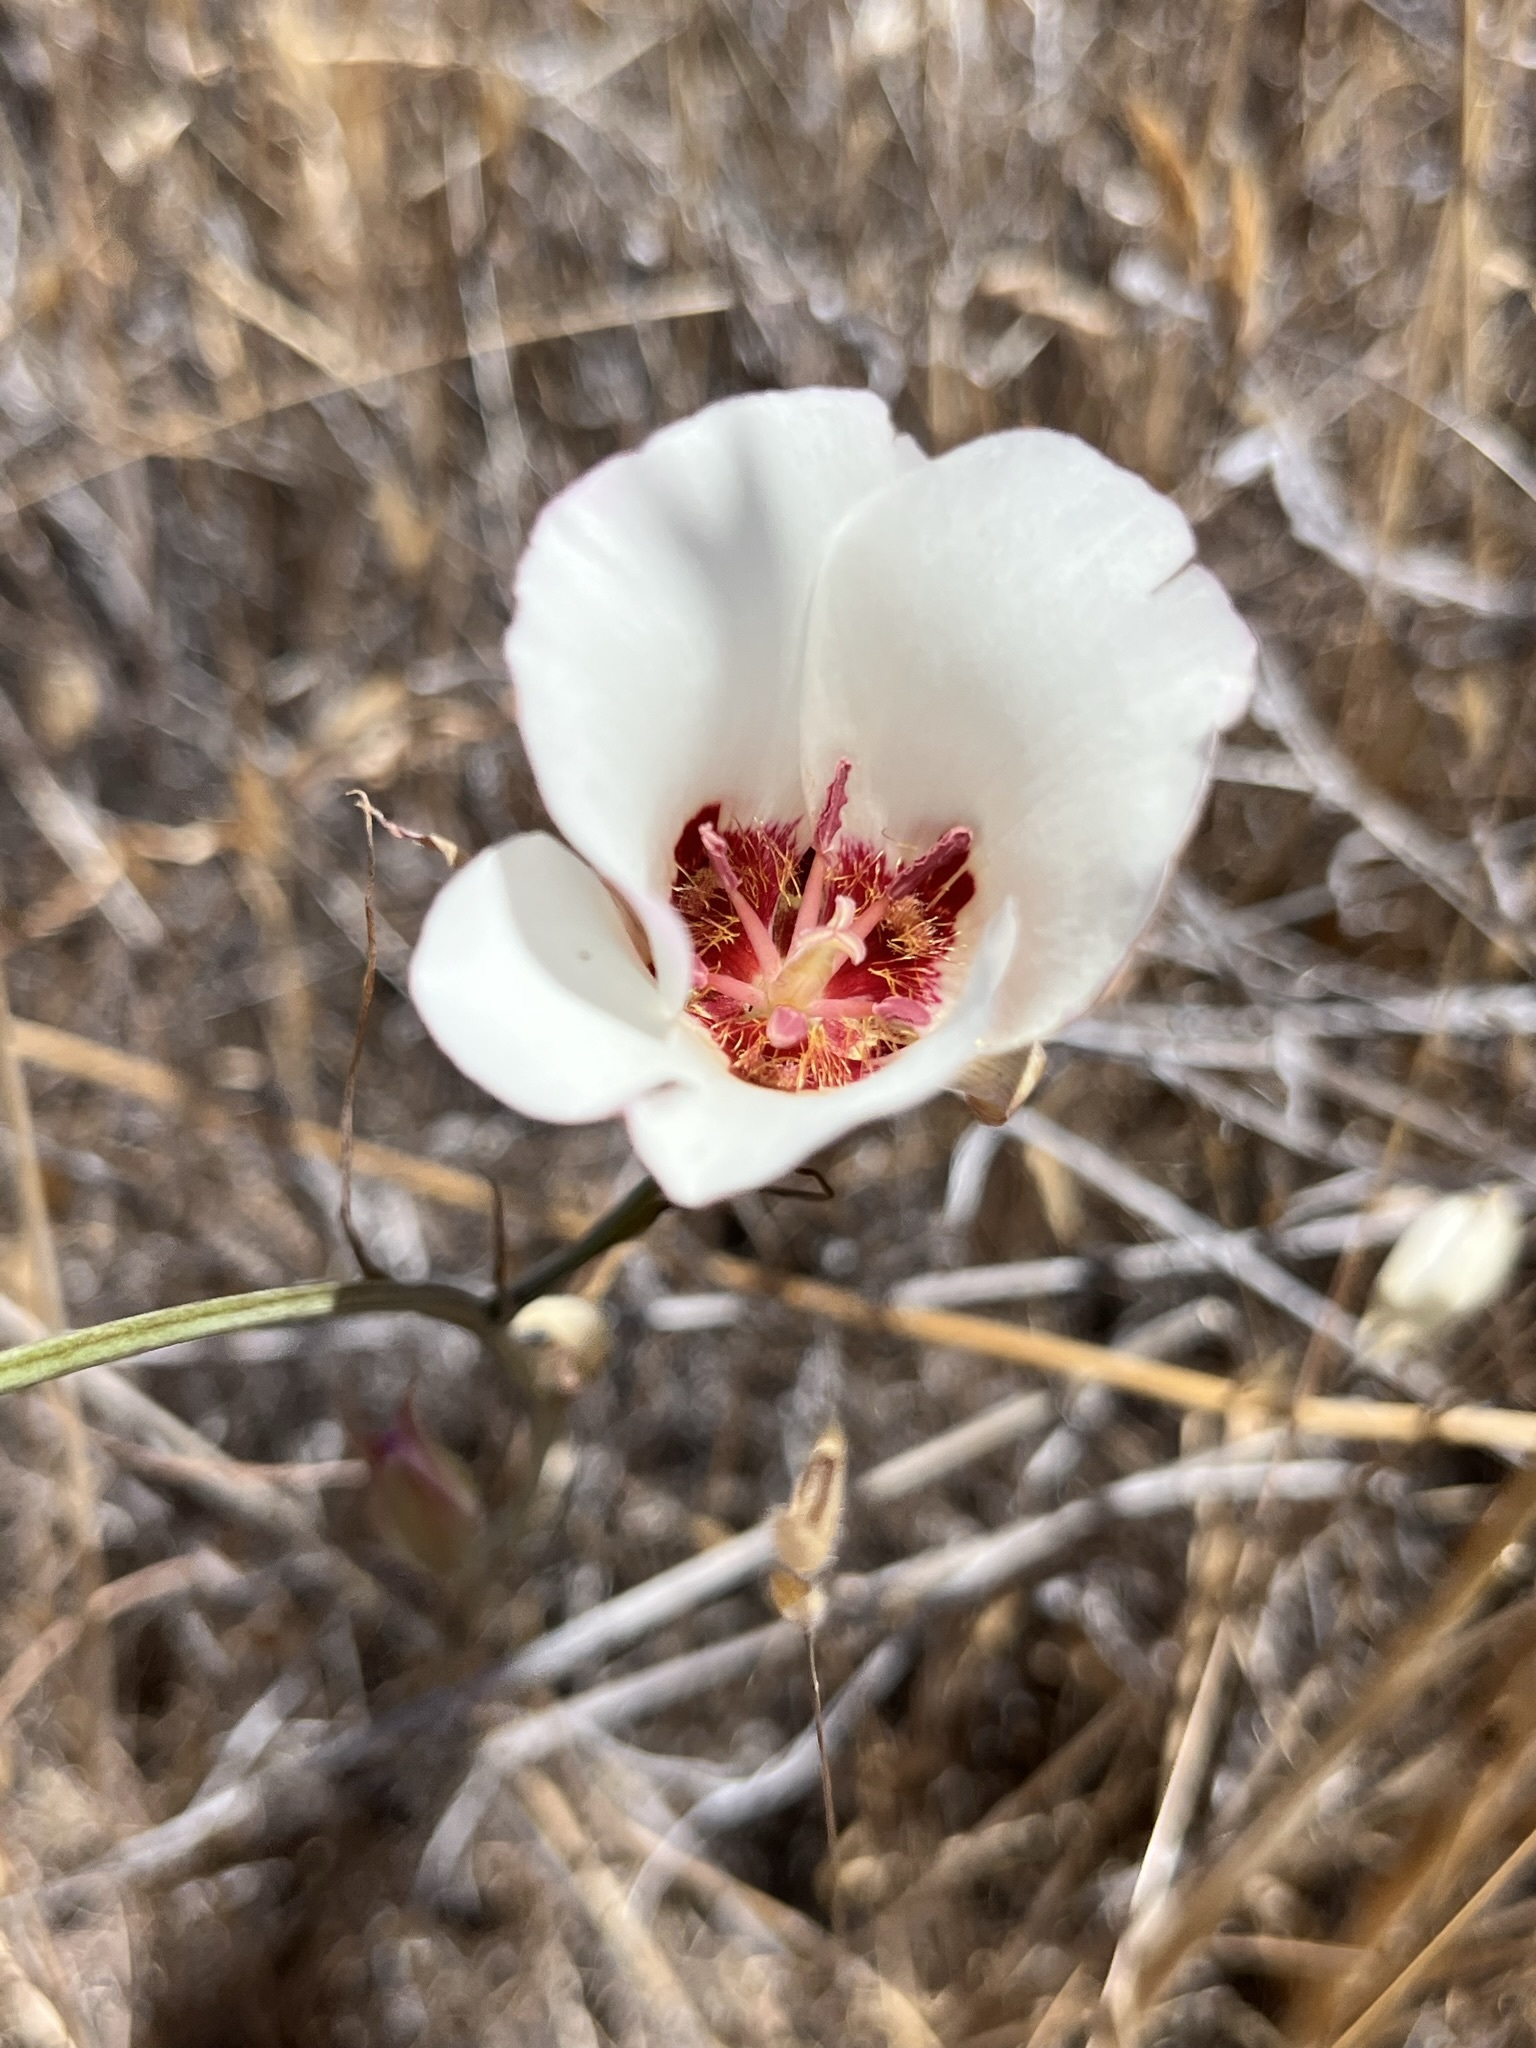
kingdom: Plantae
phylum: Tracheophyta
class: Liliopsida
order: Liliales
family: Liliaceae
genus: Calochortus
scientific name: Calochortus simulans
